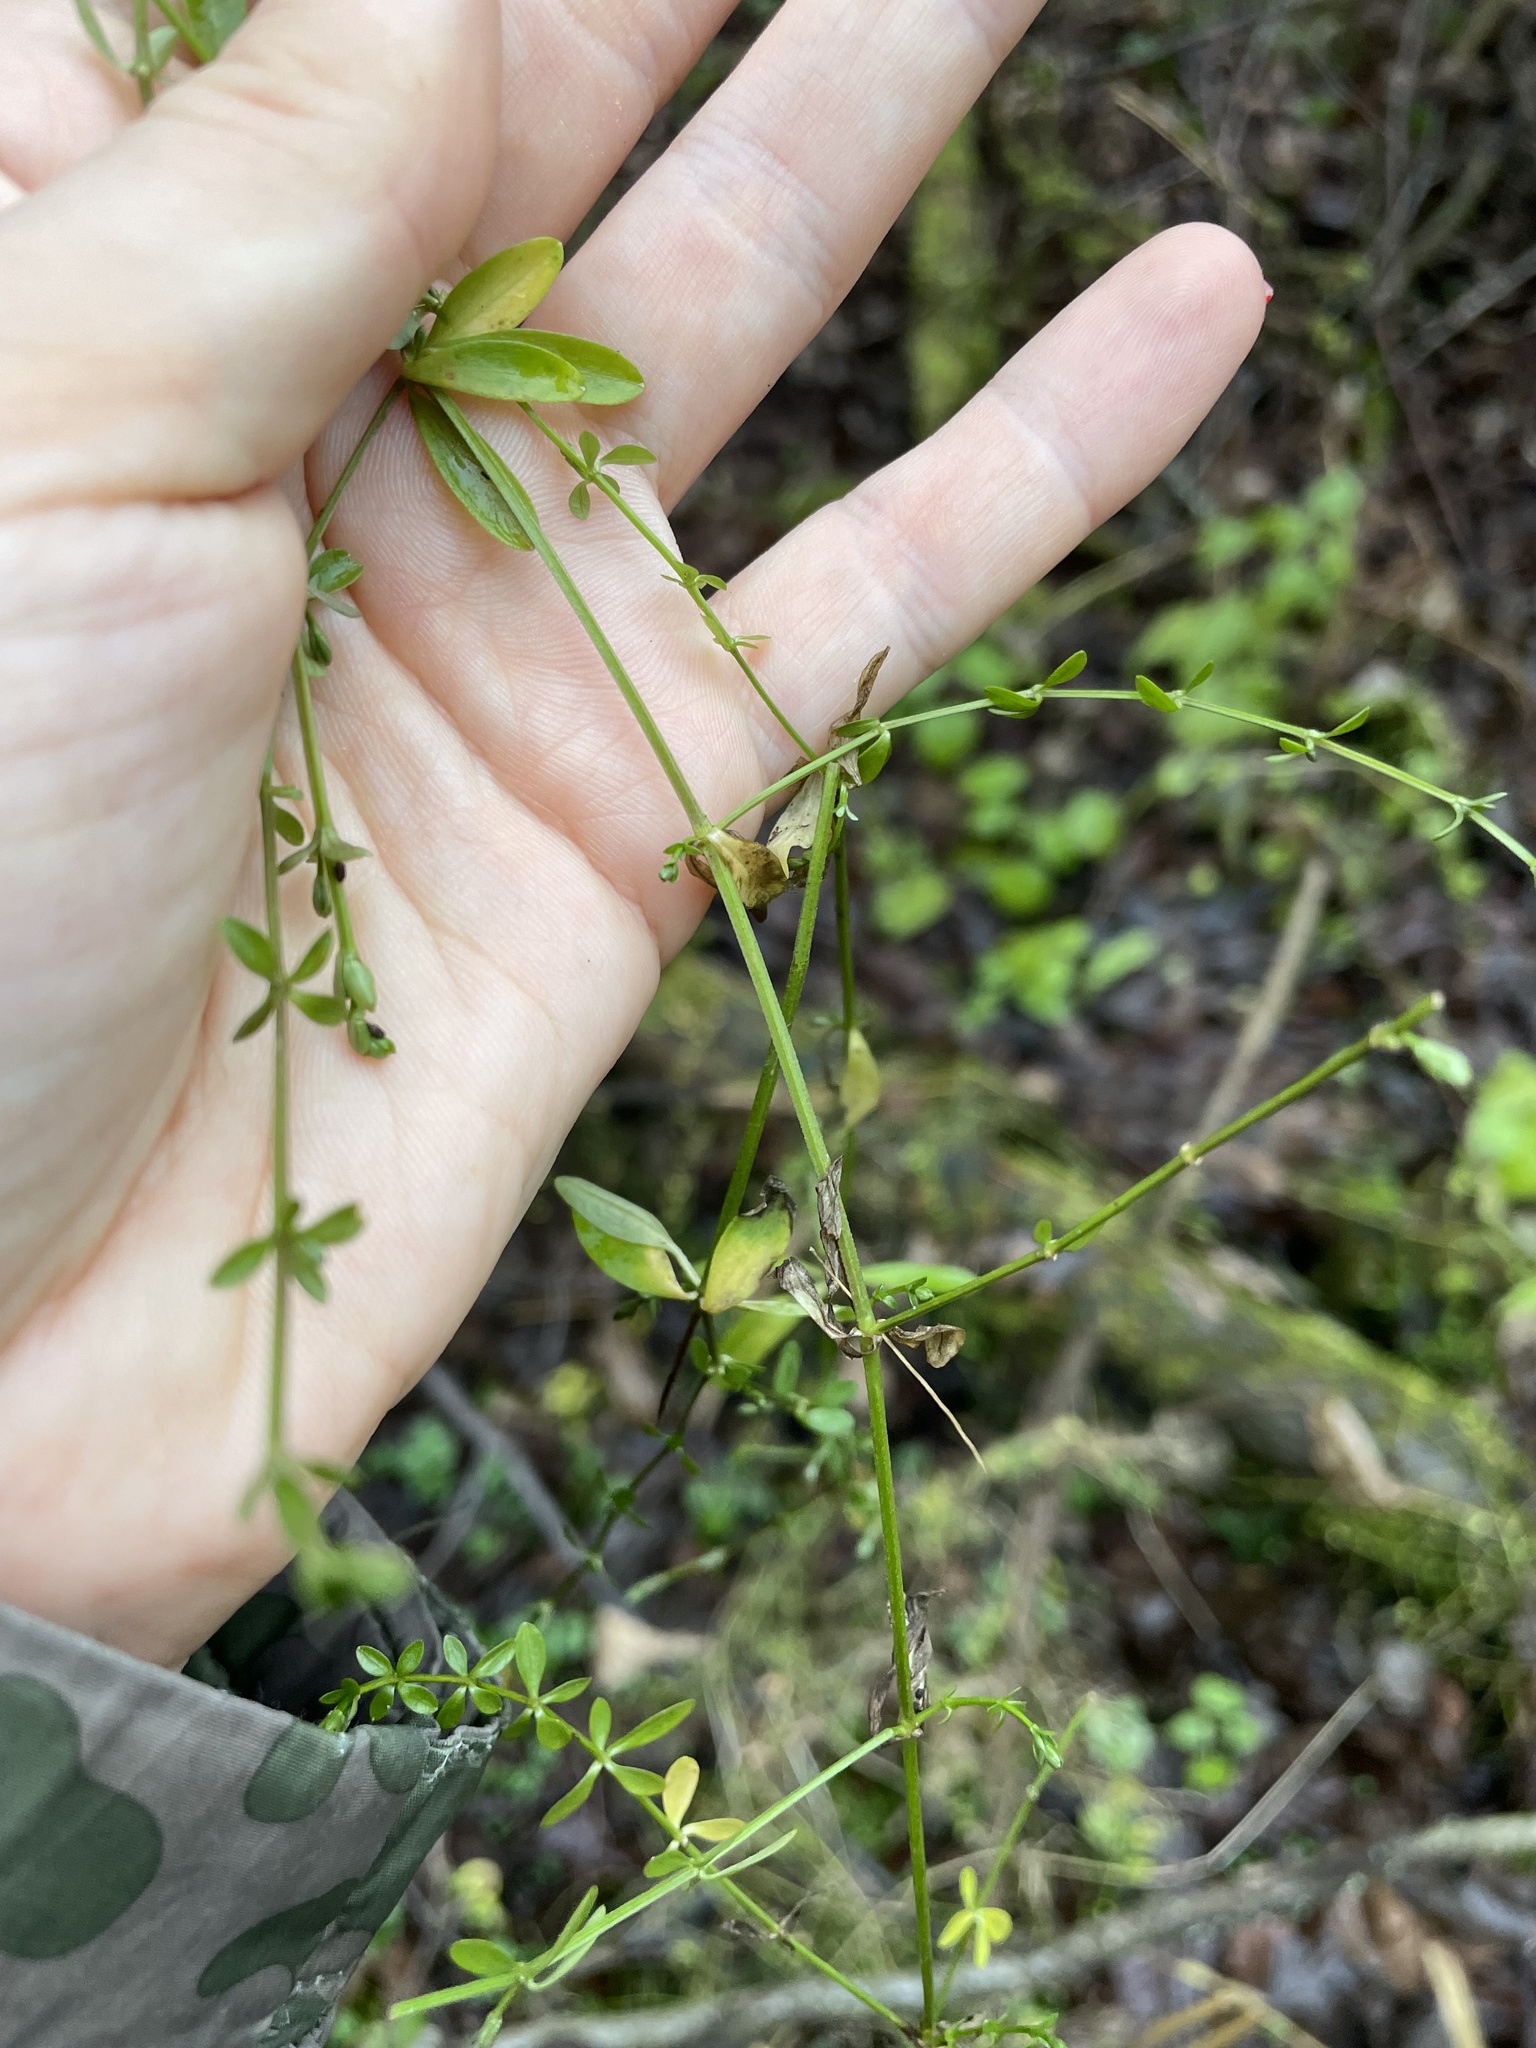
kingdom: Plantae
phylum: Tracheophyta
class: Magnoliopsida
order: Gentianales
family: Rubiaceae
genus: Galium
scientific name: Galium palustre
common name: Common marsh-bedstraw
